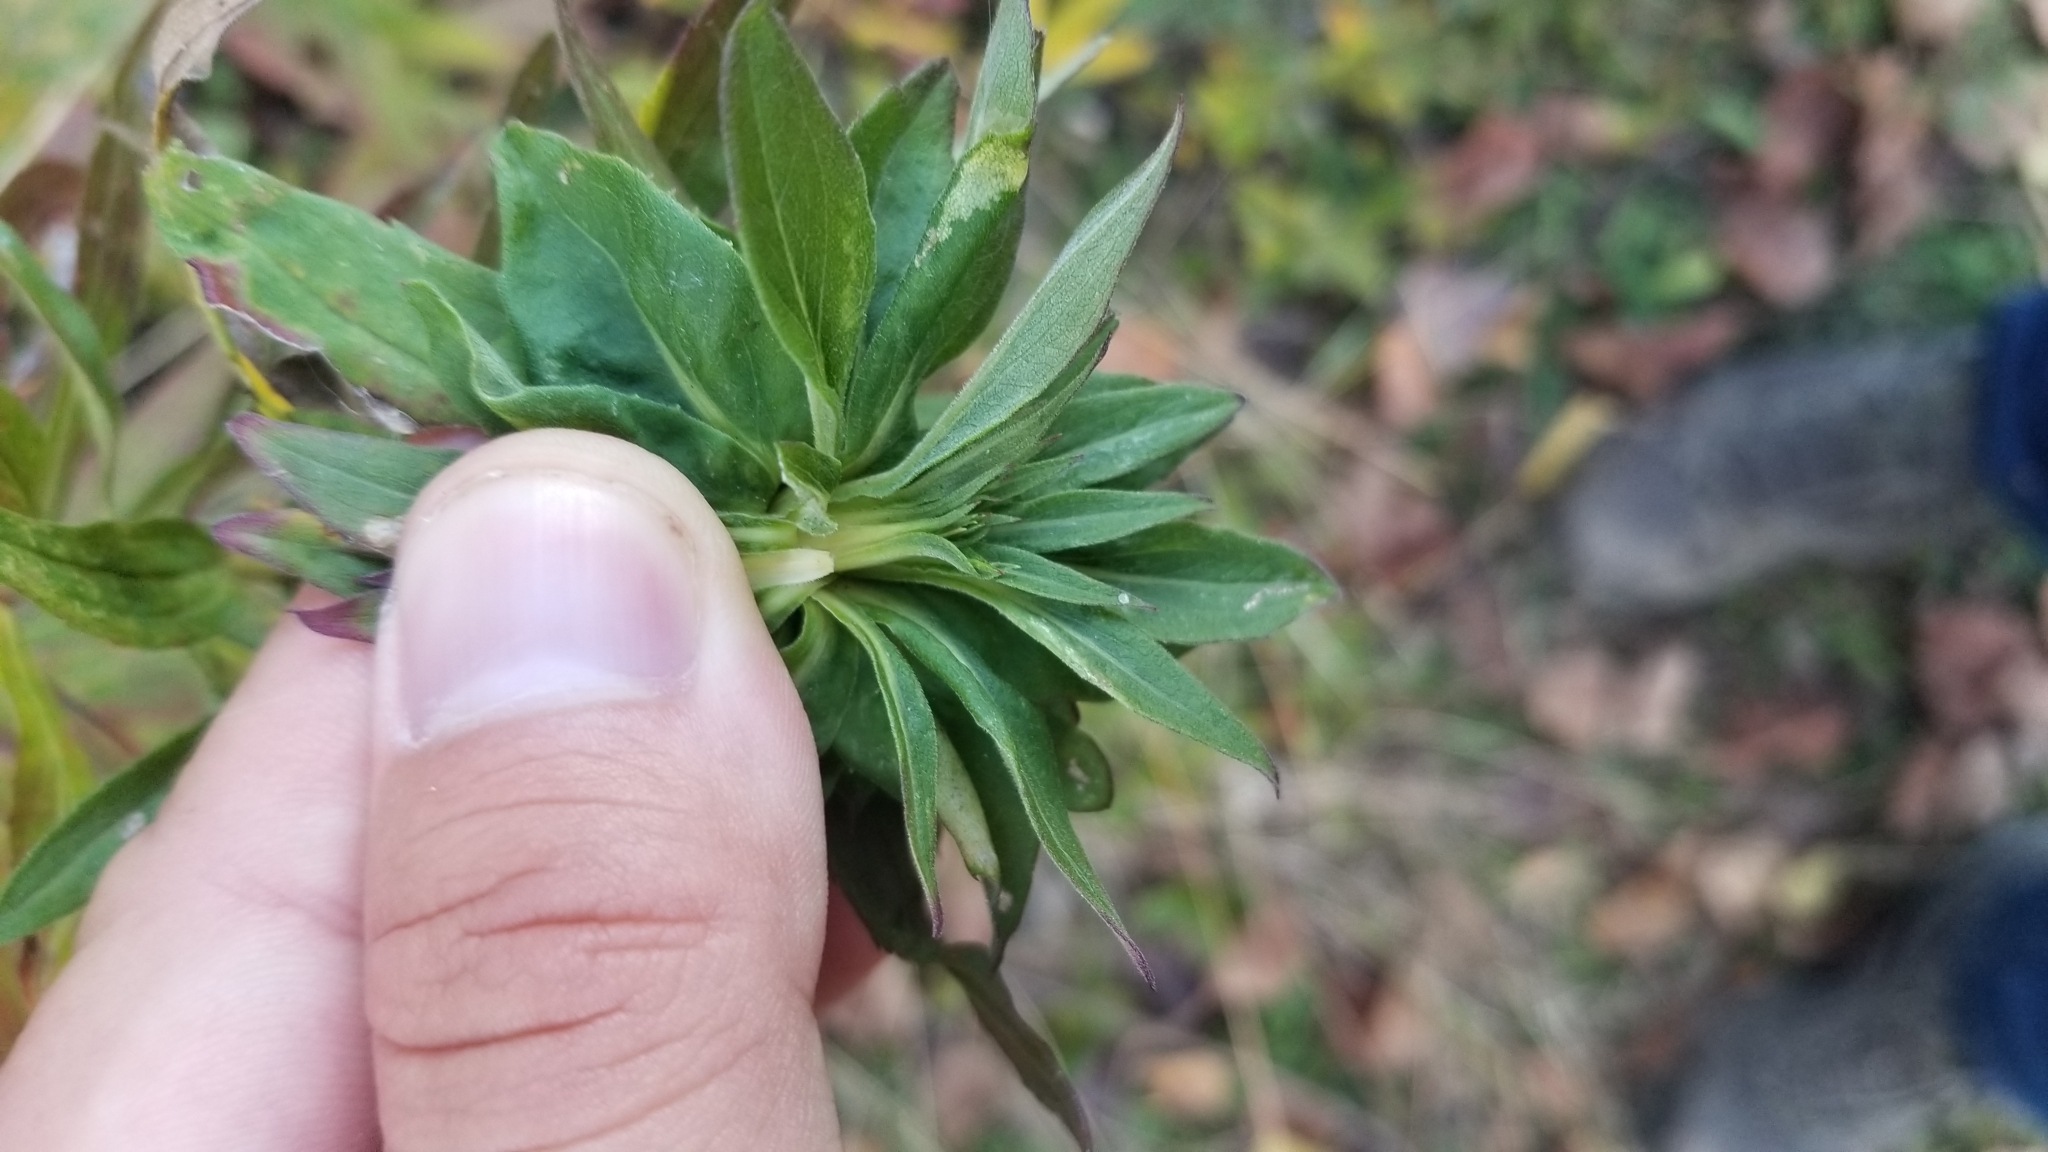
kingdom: Plantae
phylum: Tracheophyta
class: Magnoliopsida
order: Asterales
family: Asteraceae
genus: Solidago
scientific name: Solidago altissima
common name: Late goldenrod
